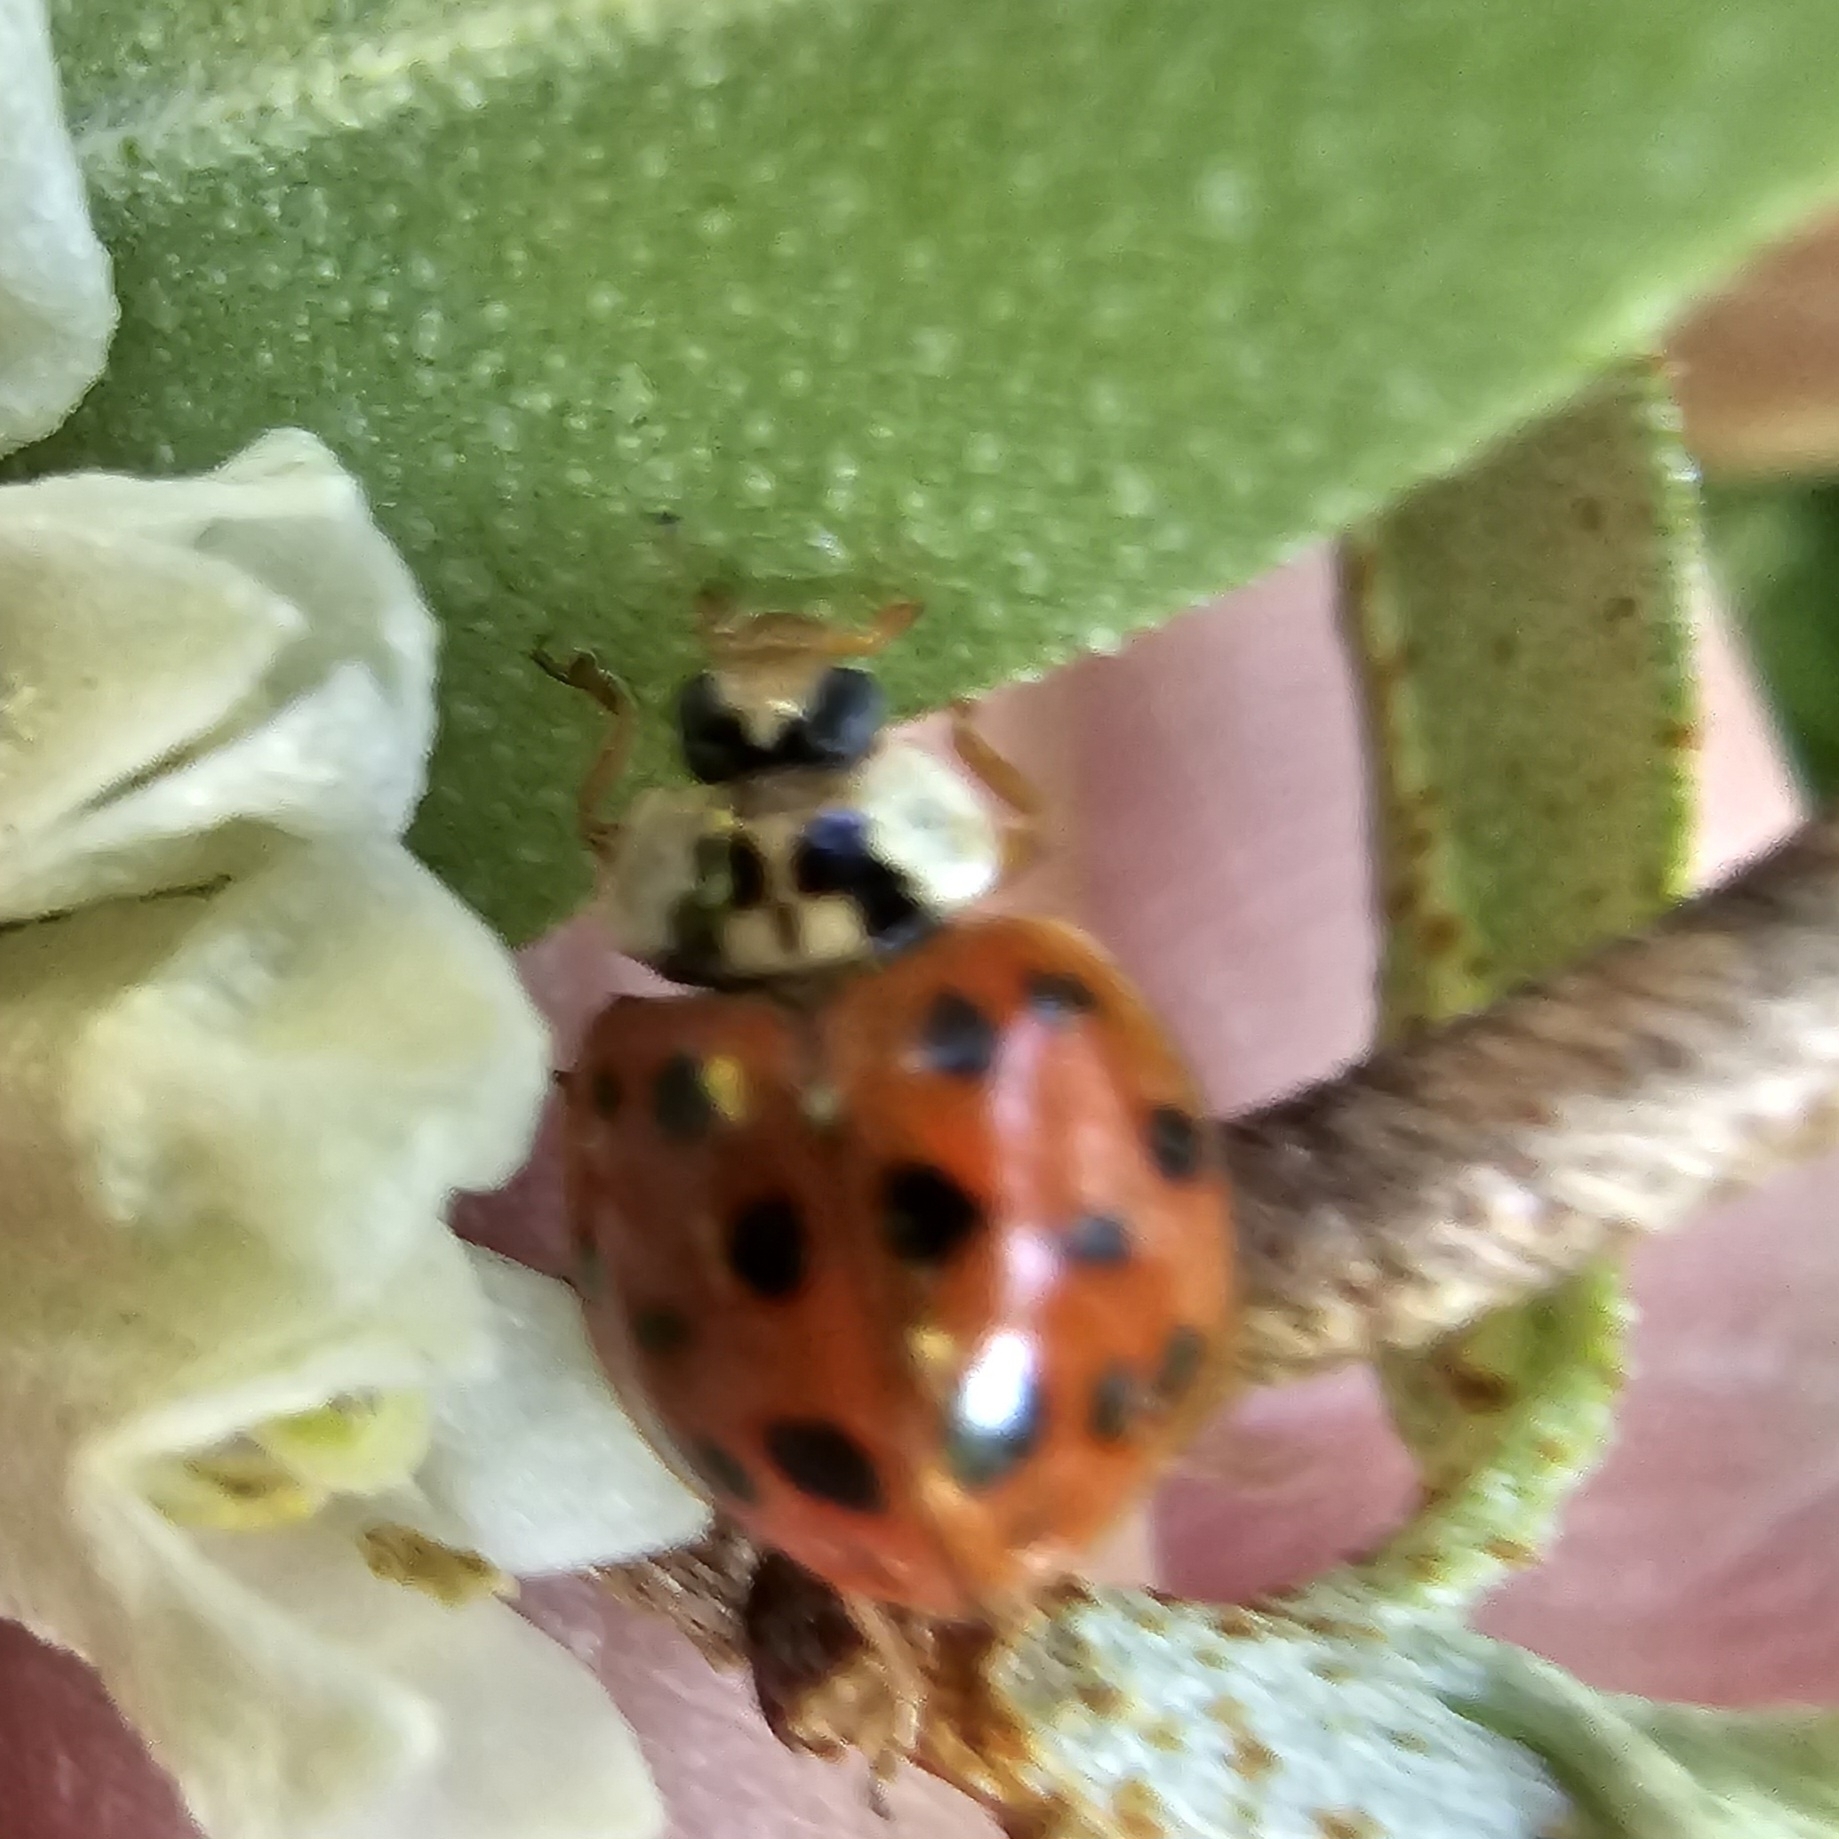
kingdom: Animalia
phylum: Arthropoda
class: Insecta
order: Coleoptera
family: Coccinellidae
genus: Harmonia
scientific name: Harmonia axyridis
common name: Harlequin ladybird
